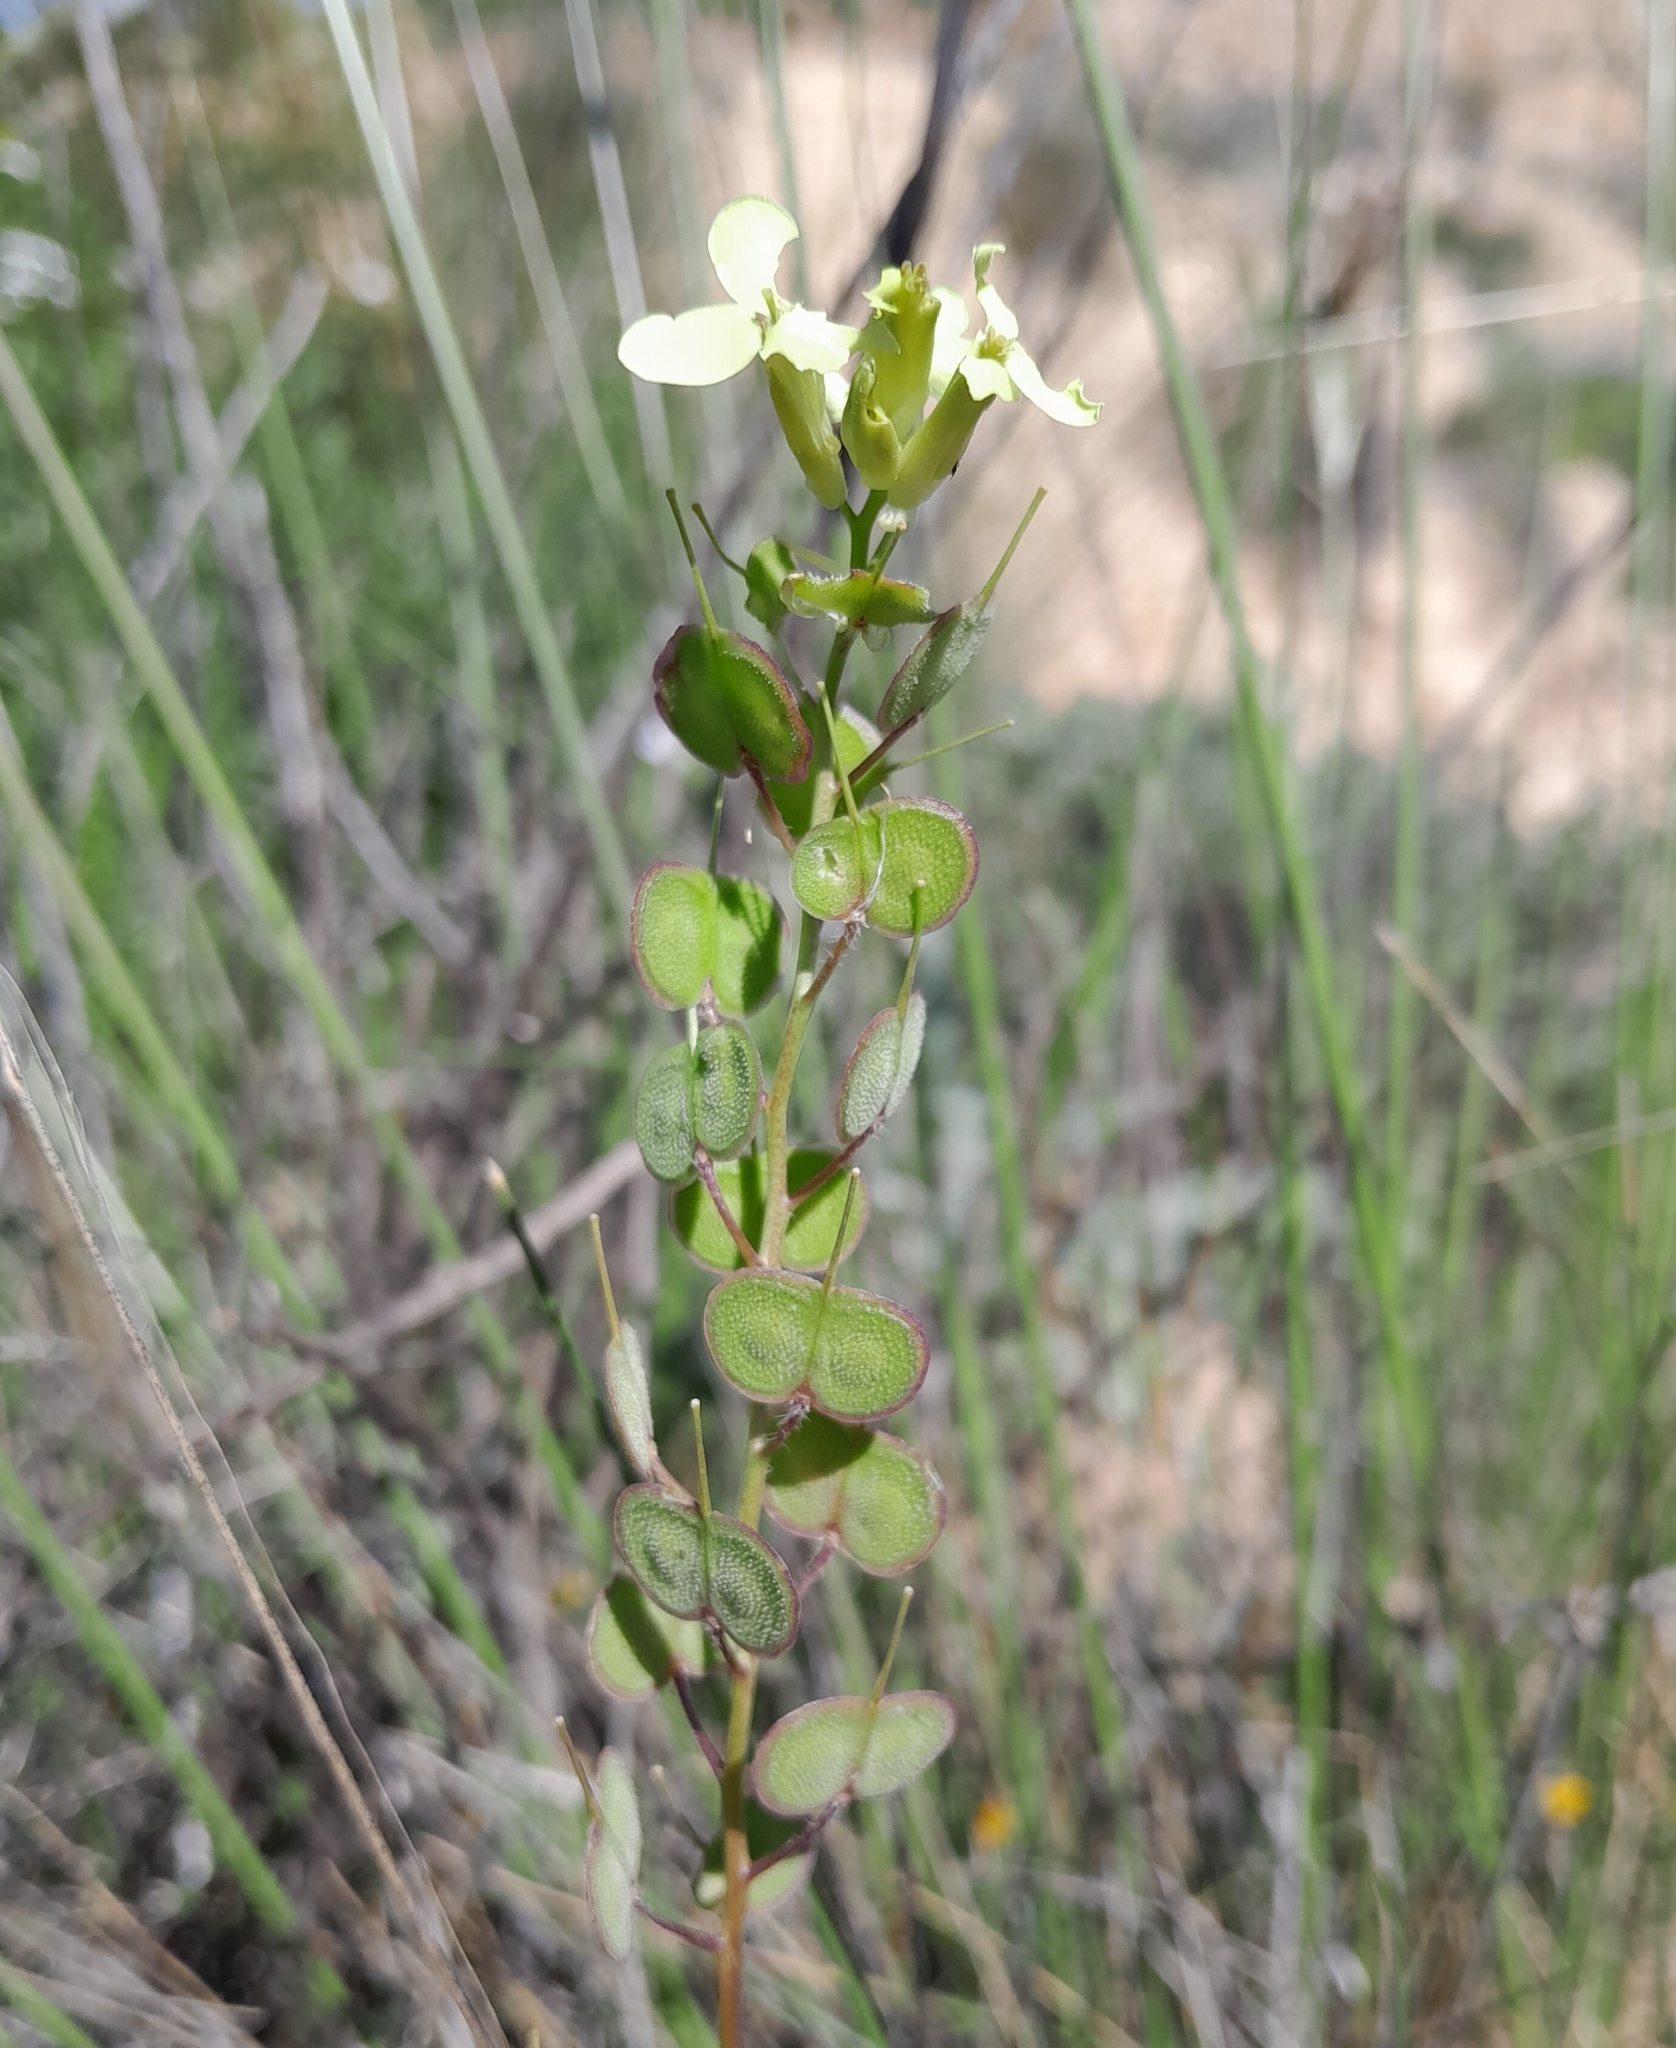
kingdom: Plantae
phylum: Tracheophyta
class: Magnoliopsida
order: Brassicales
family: Brassicaceae
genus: Biscutella
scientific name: Biscutella auriculata
